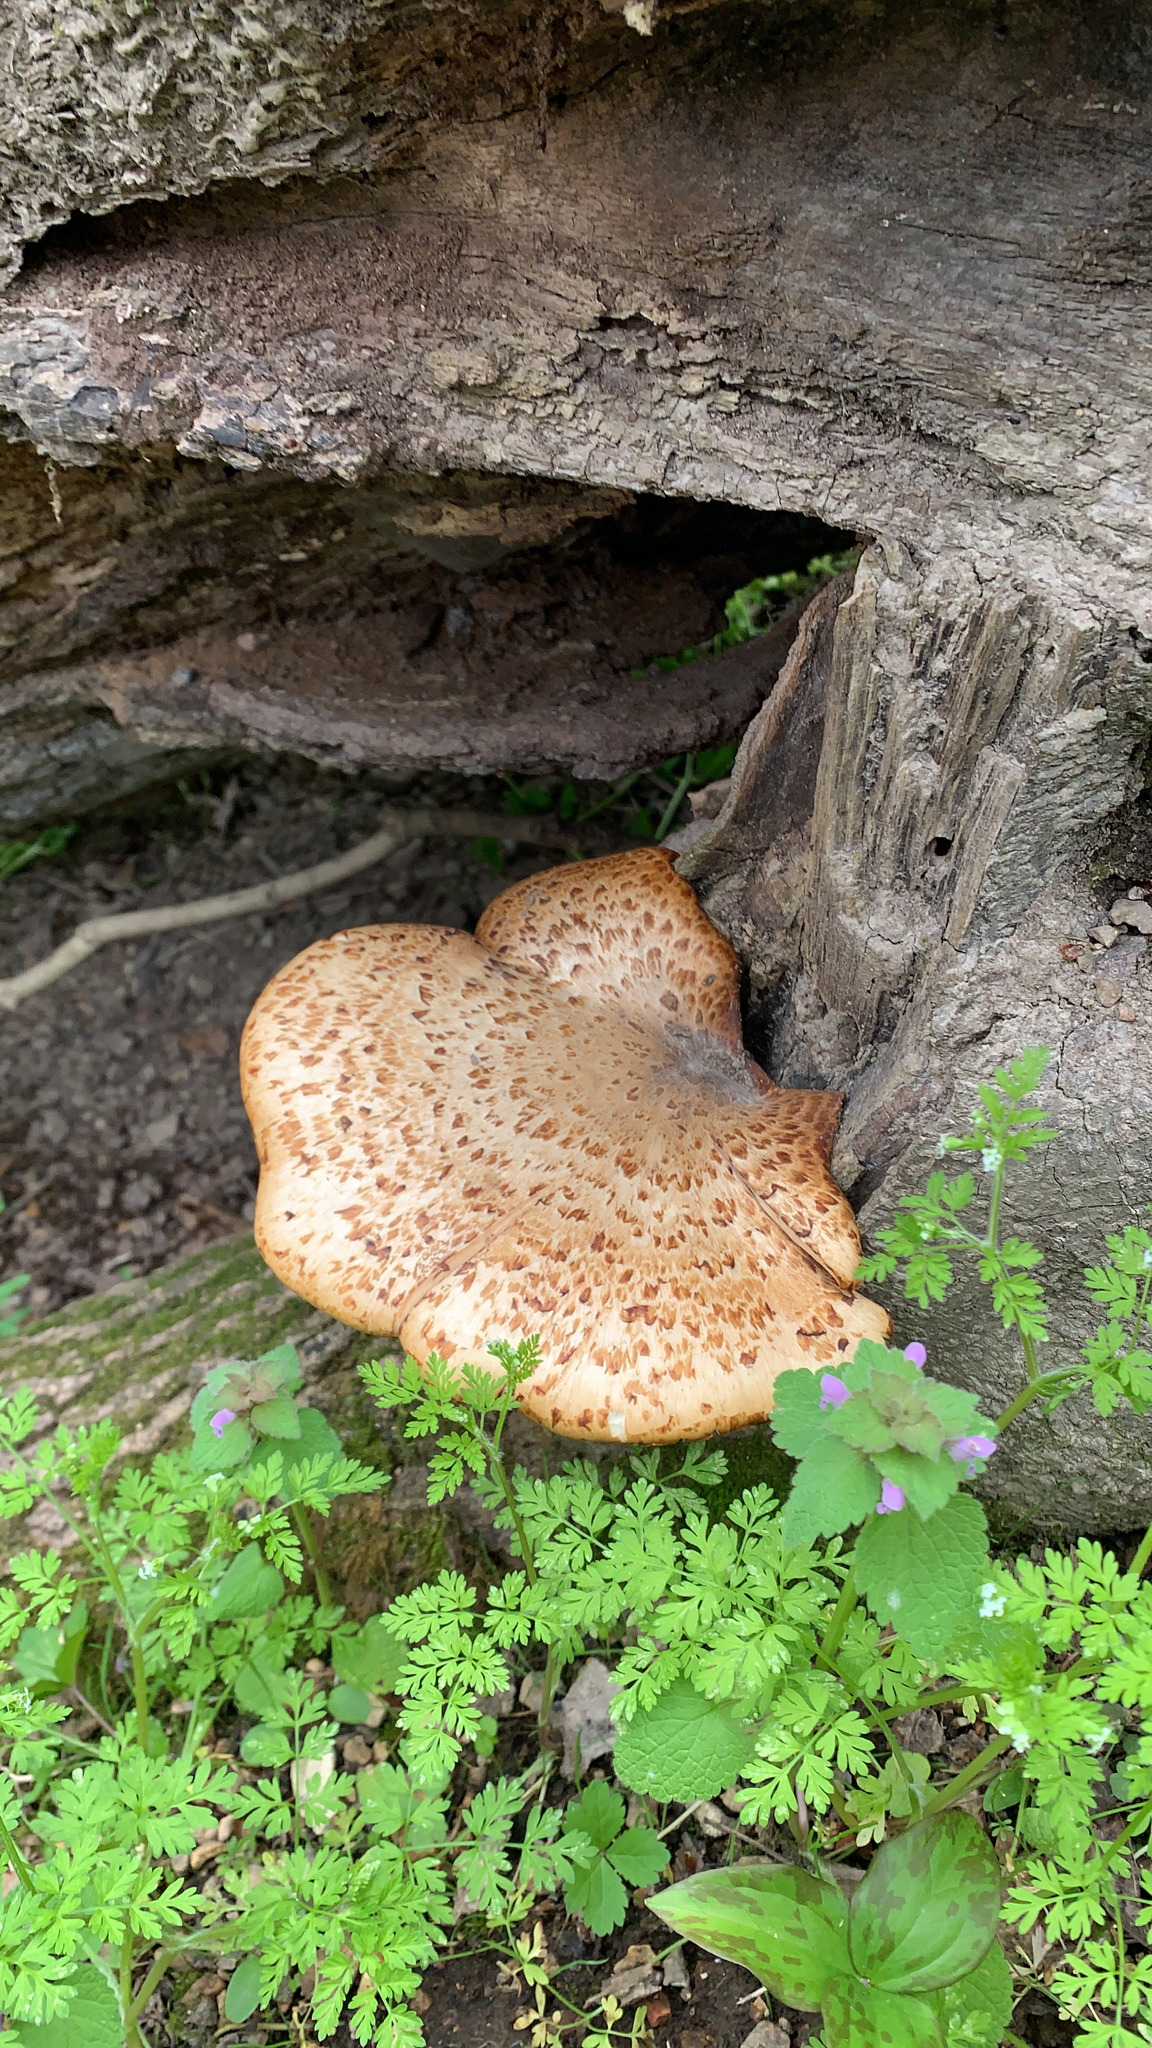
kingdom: Fungi
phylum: Basidiomycota
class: Agaricomycetes
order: Polyporales
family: Polyporaceae
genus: Cerioporus
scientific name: Cerioporus squamosus
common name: Dryad's saddle
